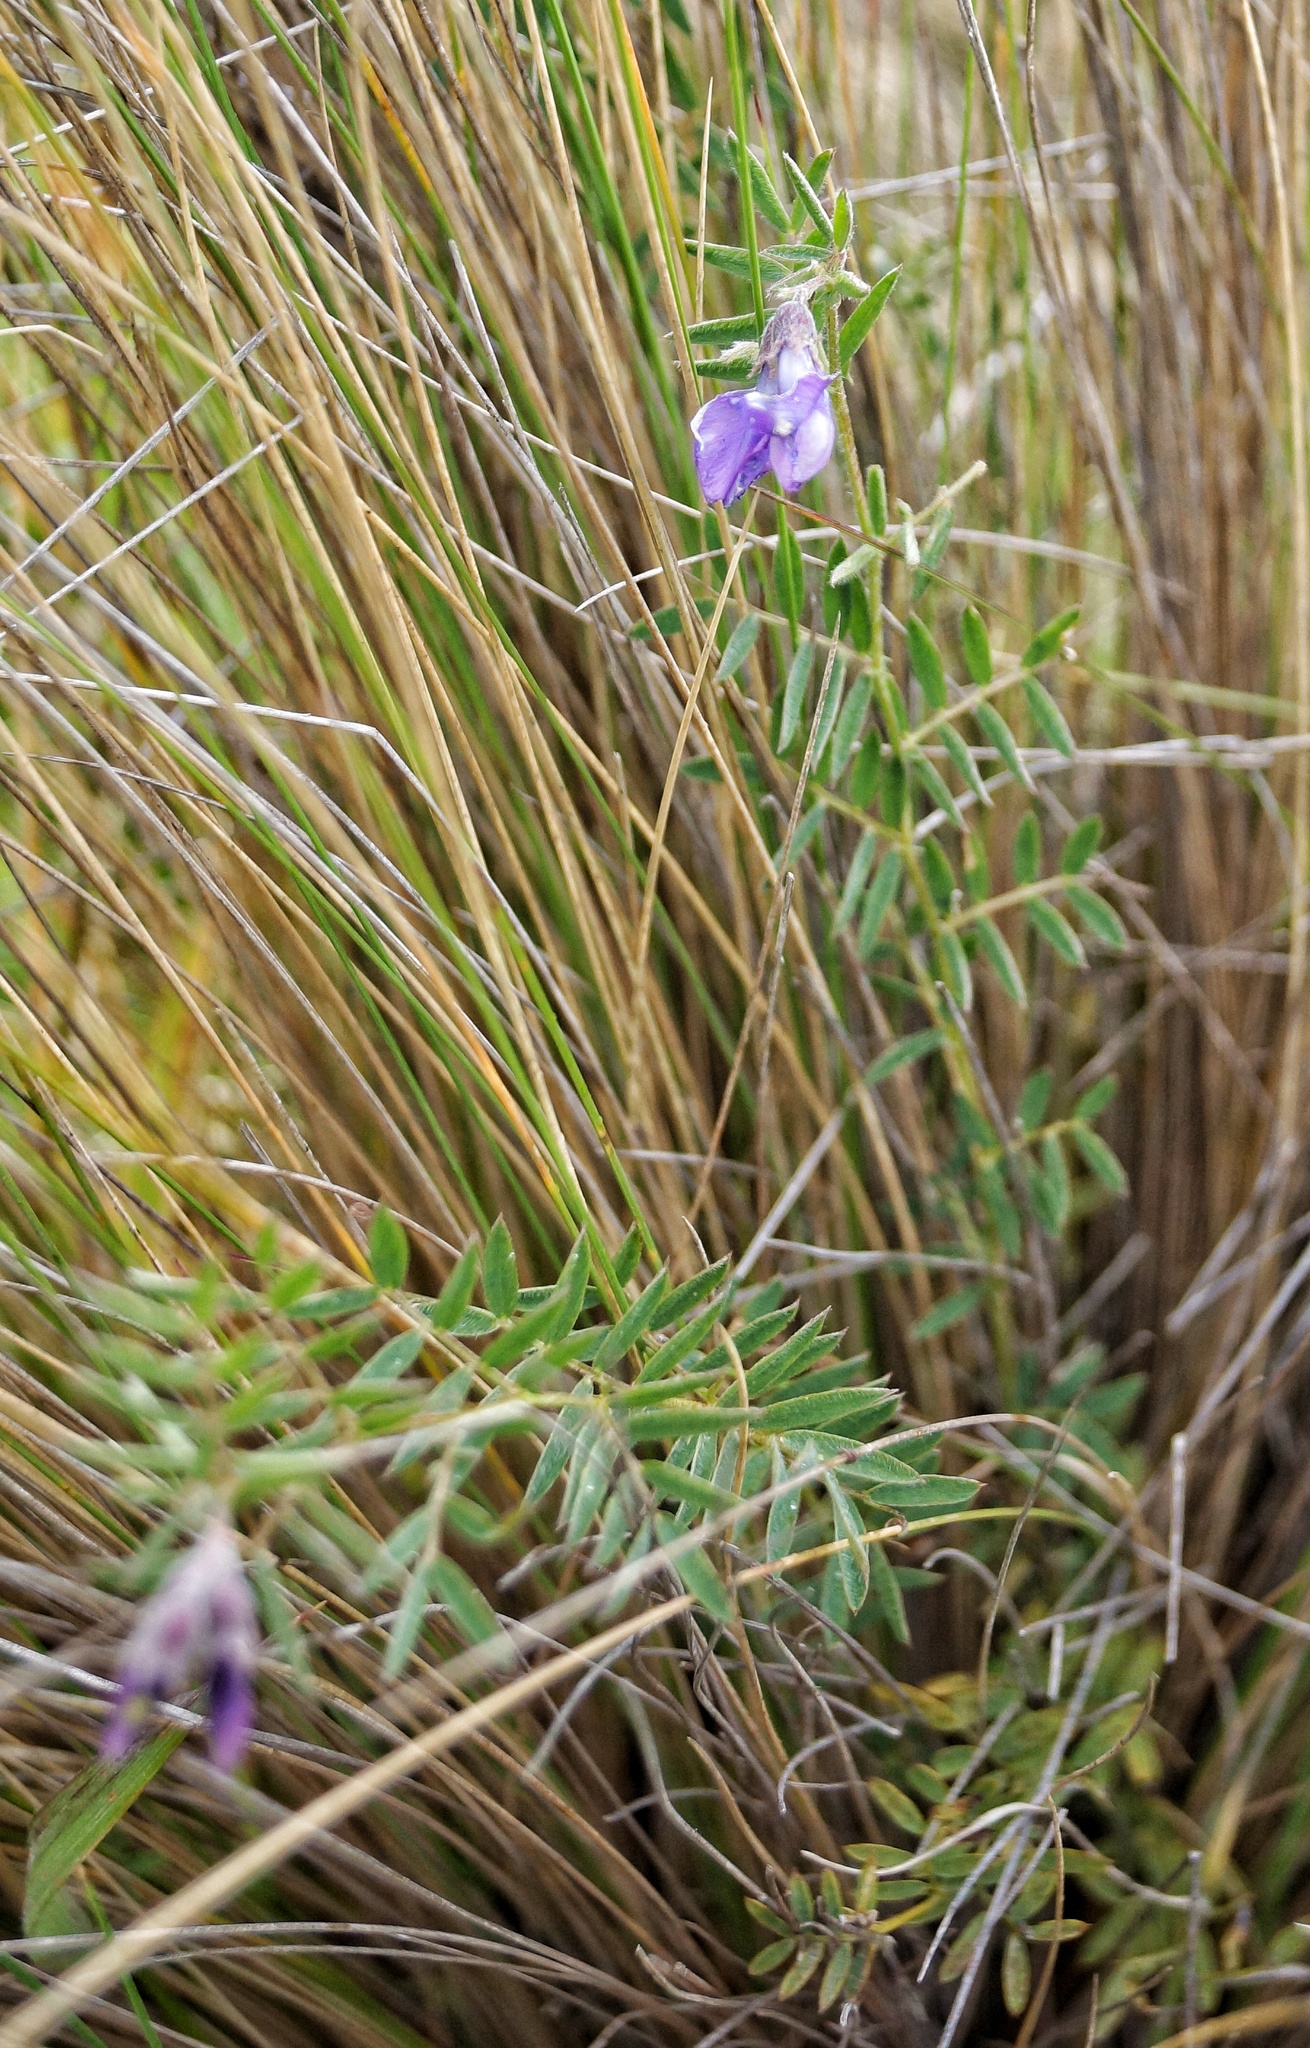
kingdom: Plantae
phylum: Tracheophyta
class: Magnoliopsida
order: Fabales
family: Fabaceae
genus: Vicia
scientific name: Vicia andicola
